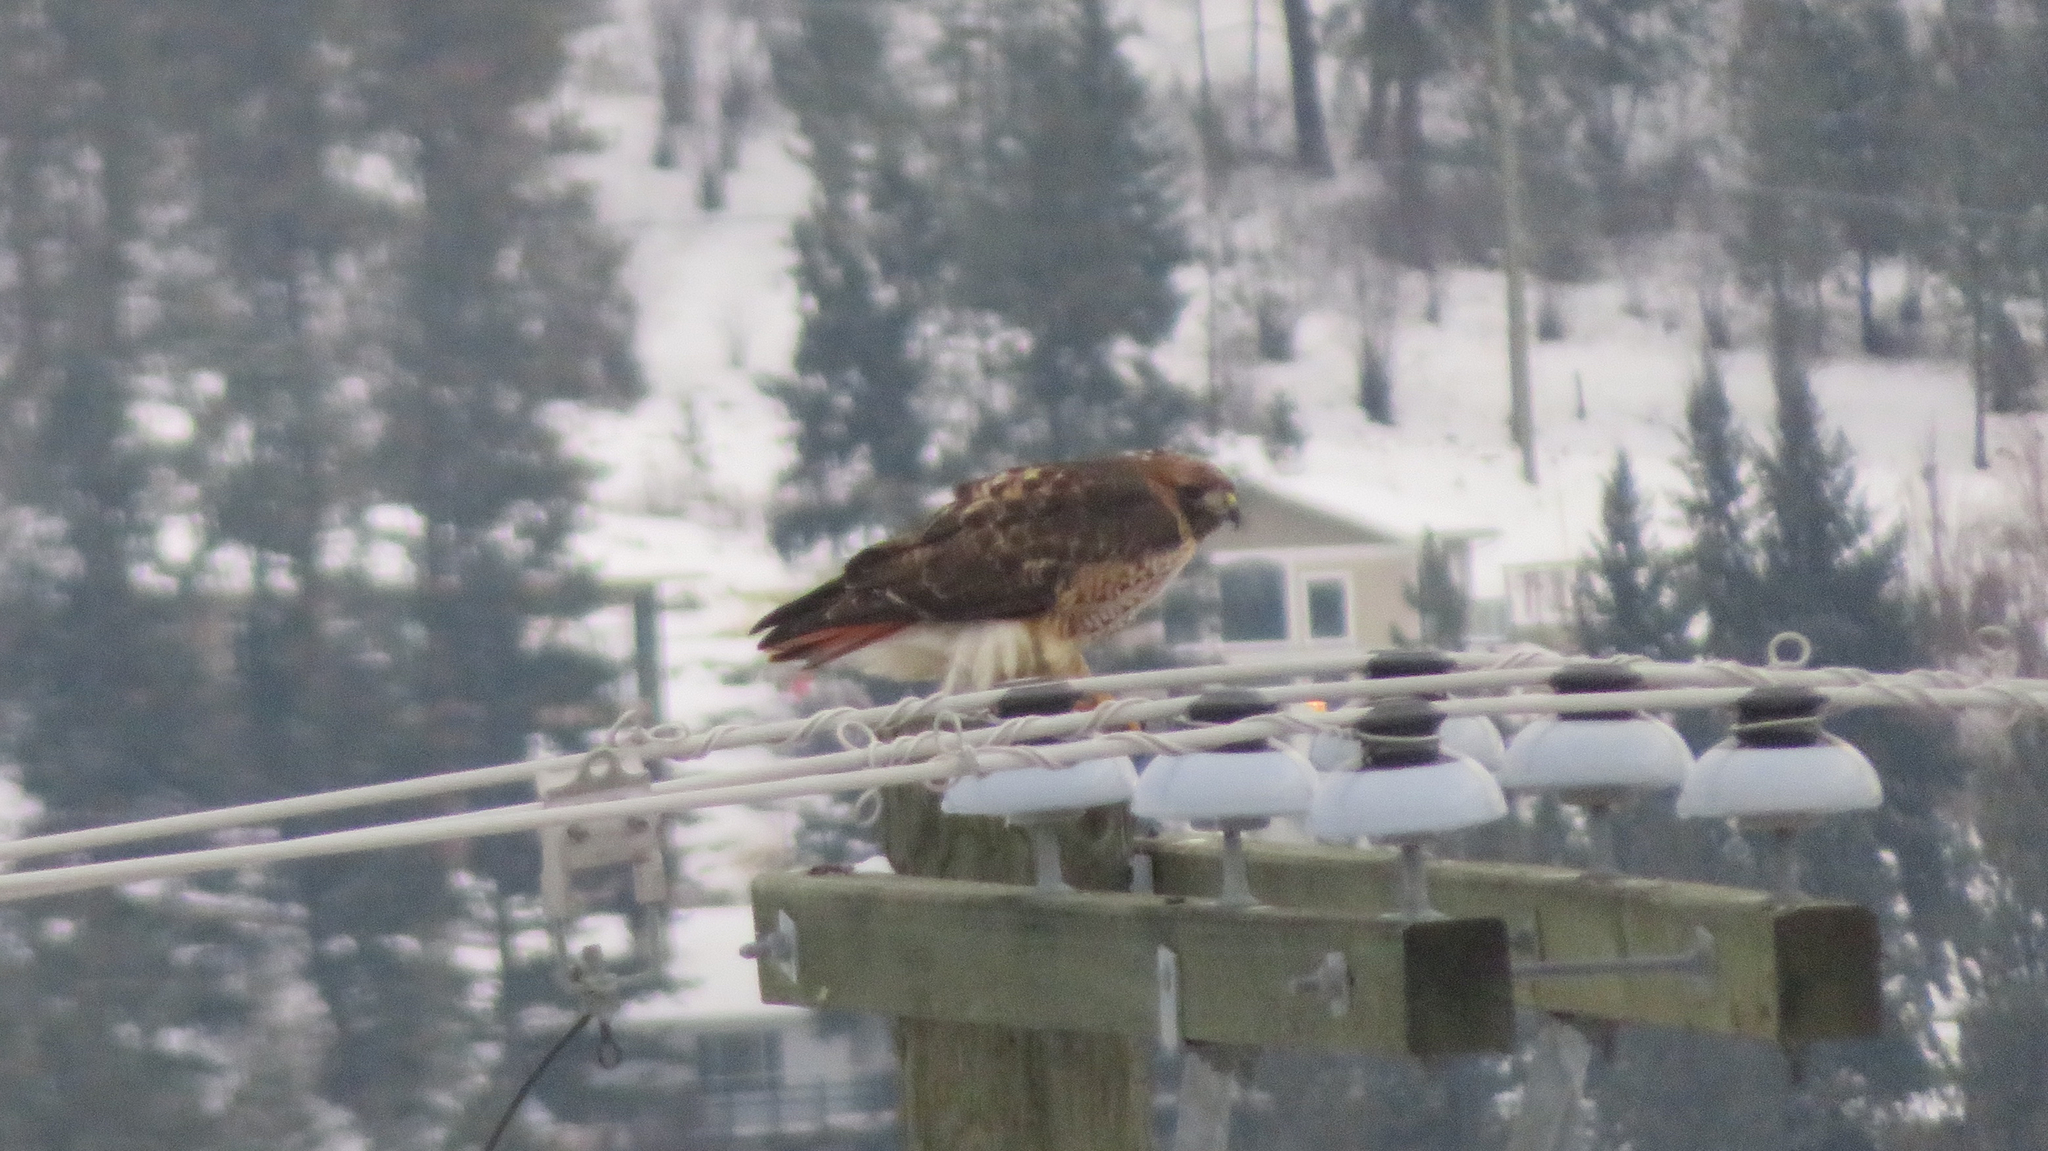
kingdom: Animalia
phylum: Chordata
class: Aves
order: Accipitriformes
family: Accipitridae
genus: Buteo
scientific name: Buteo jamaicensis
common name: Red-tailed hawk
